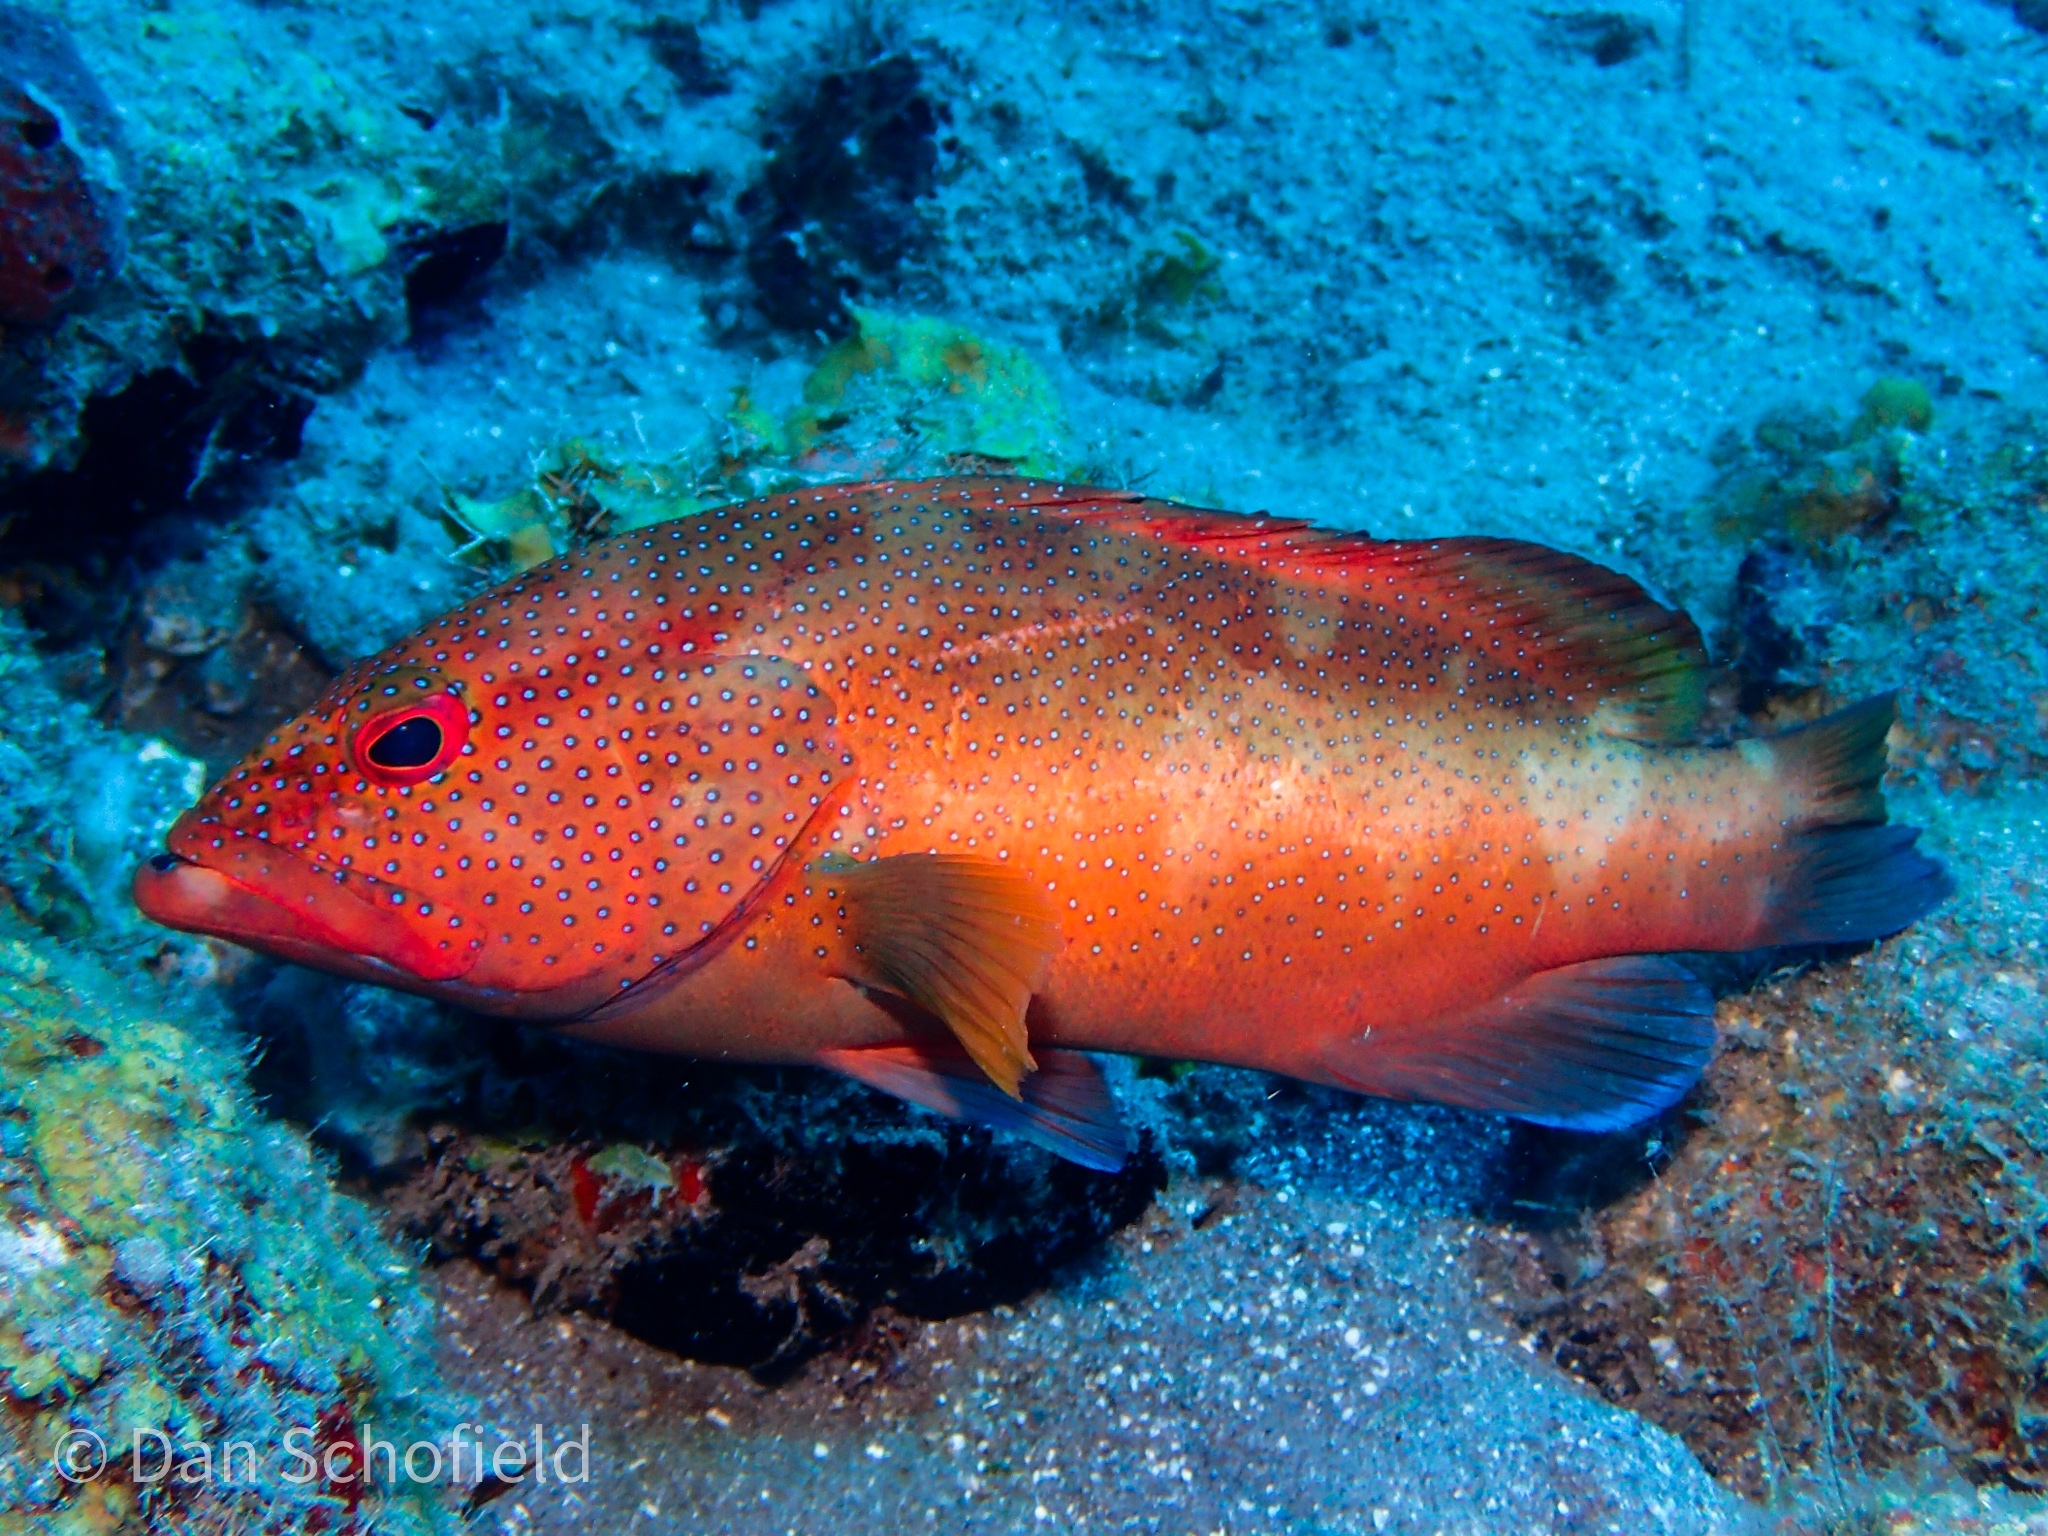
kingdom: Animalia
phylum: Chordata
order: Perciformes
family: Serranidae
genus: Cephalopholis
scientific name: Cephalopholis fulva
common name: Butterfish
